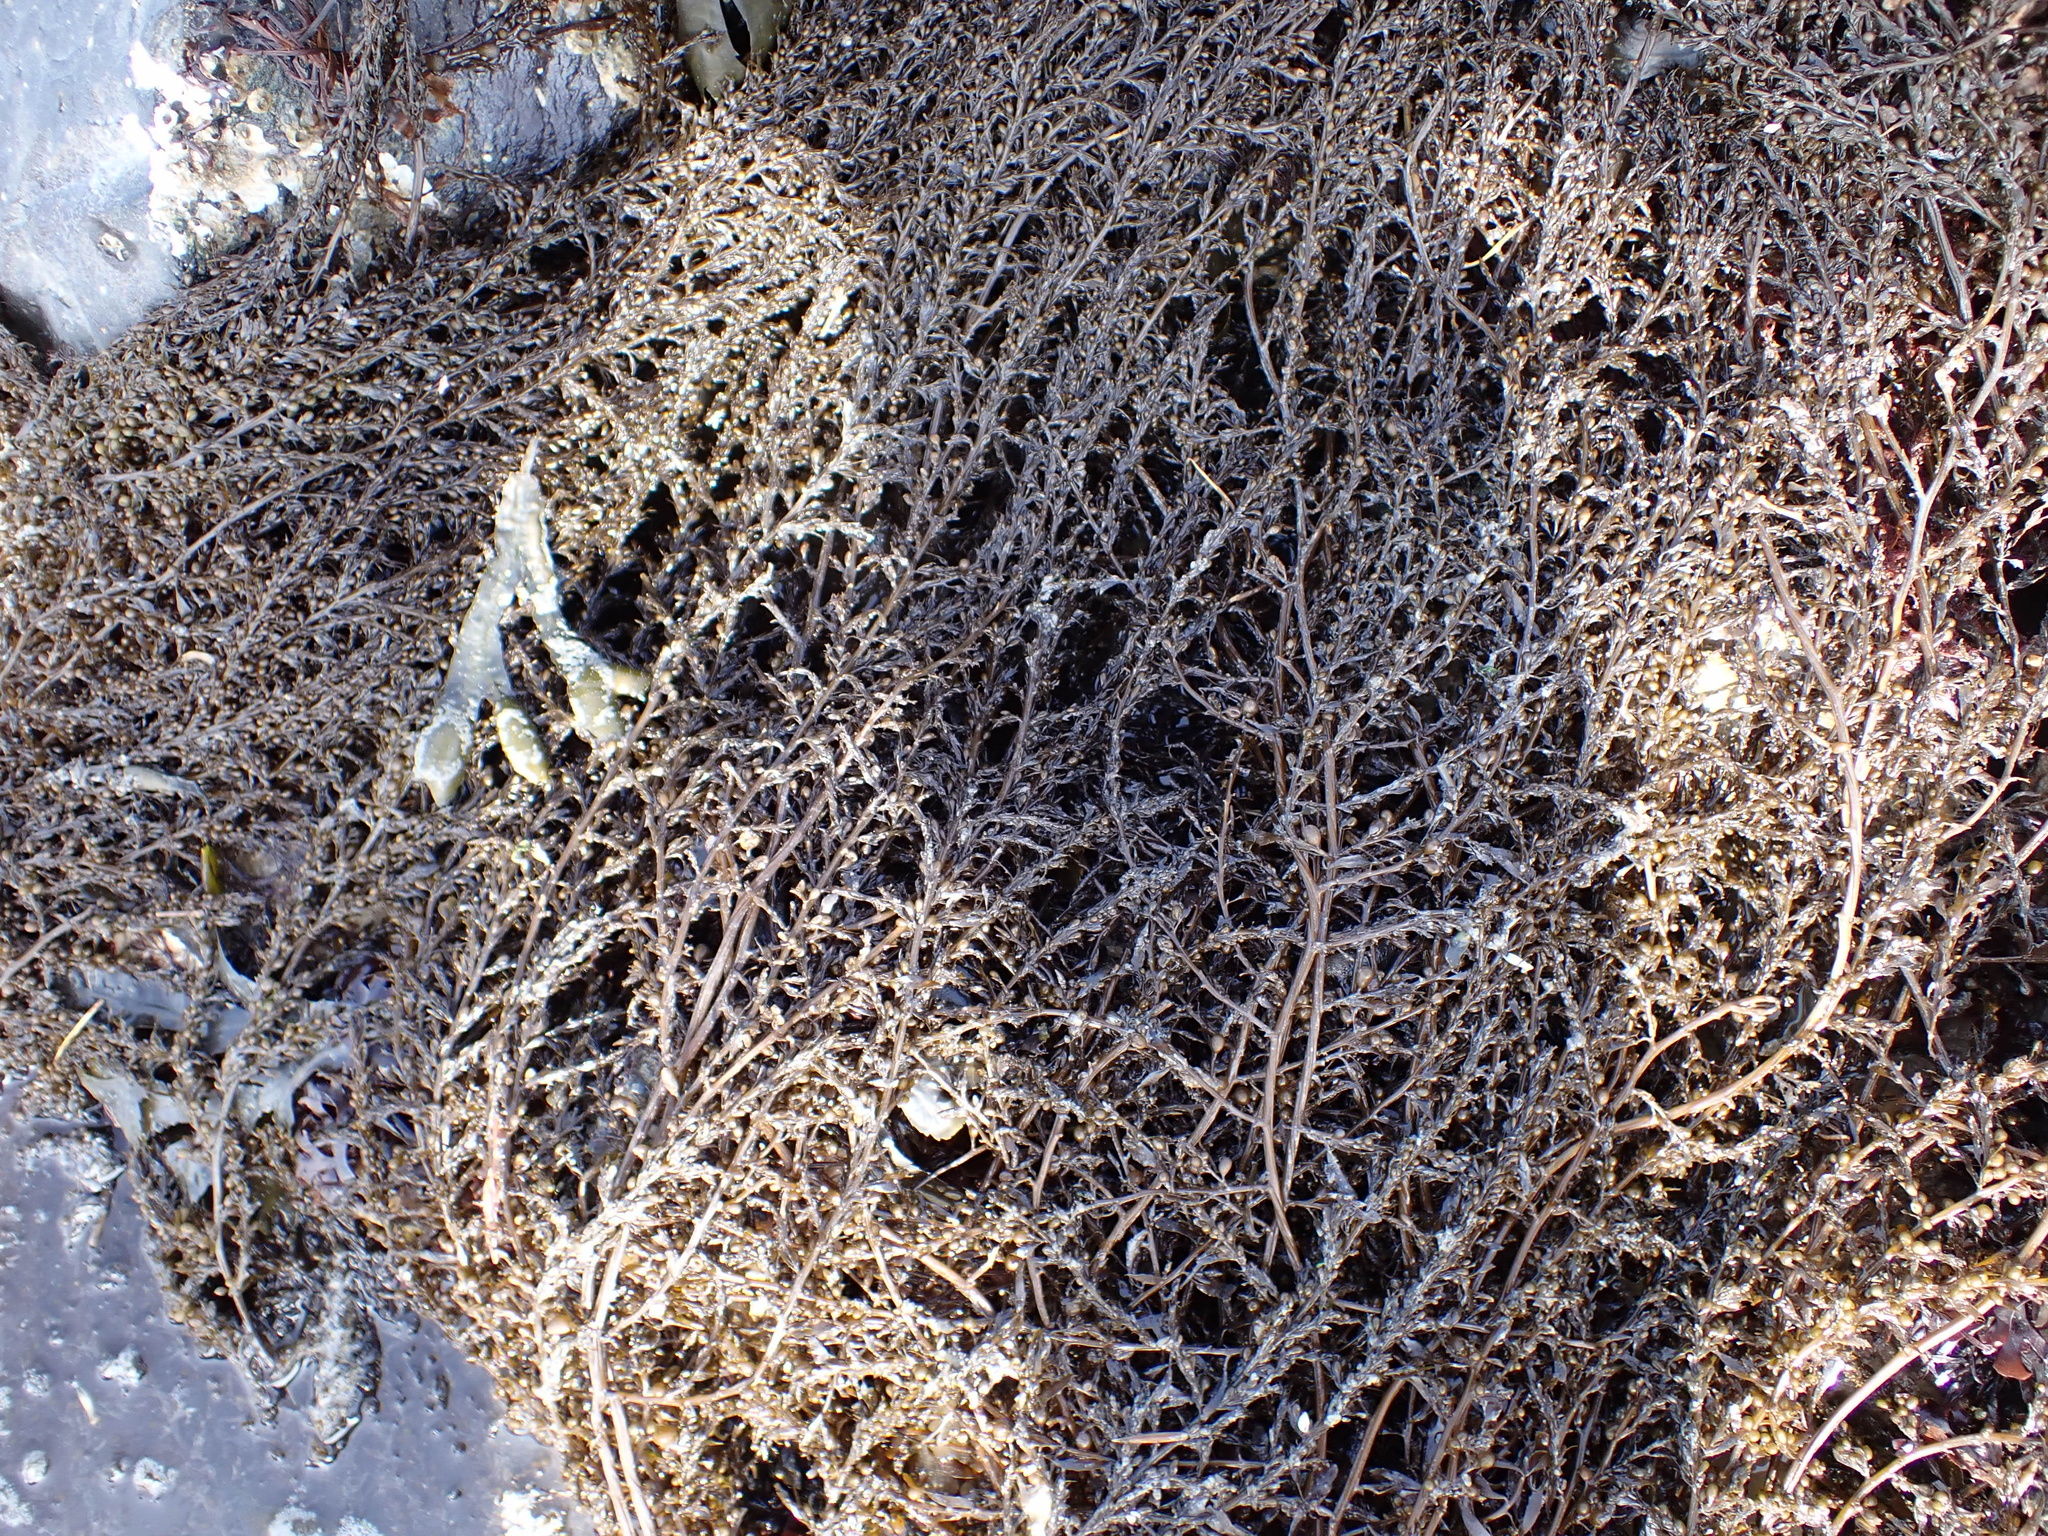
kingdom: Chromista
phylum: Ochrophyta
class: Phaeophyceae
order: Fucales
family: Sargassaceae
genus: Sargassum
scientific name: Sargassum muticum
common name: Japweed
